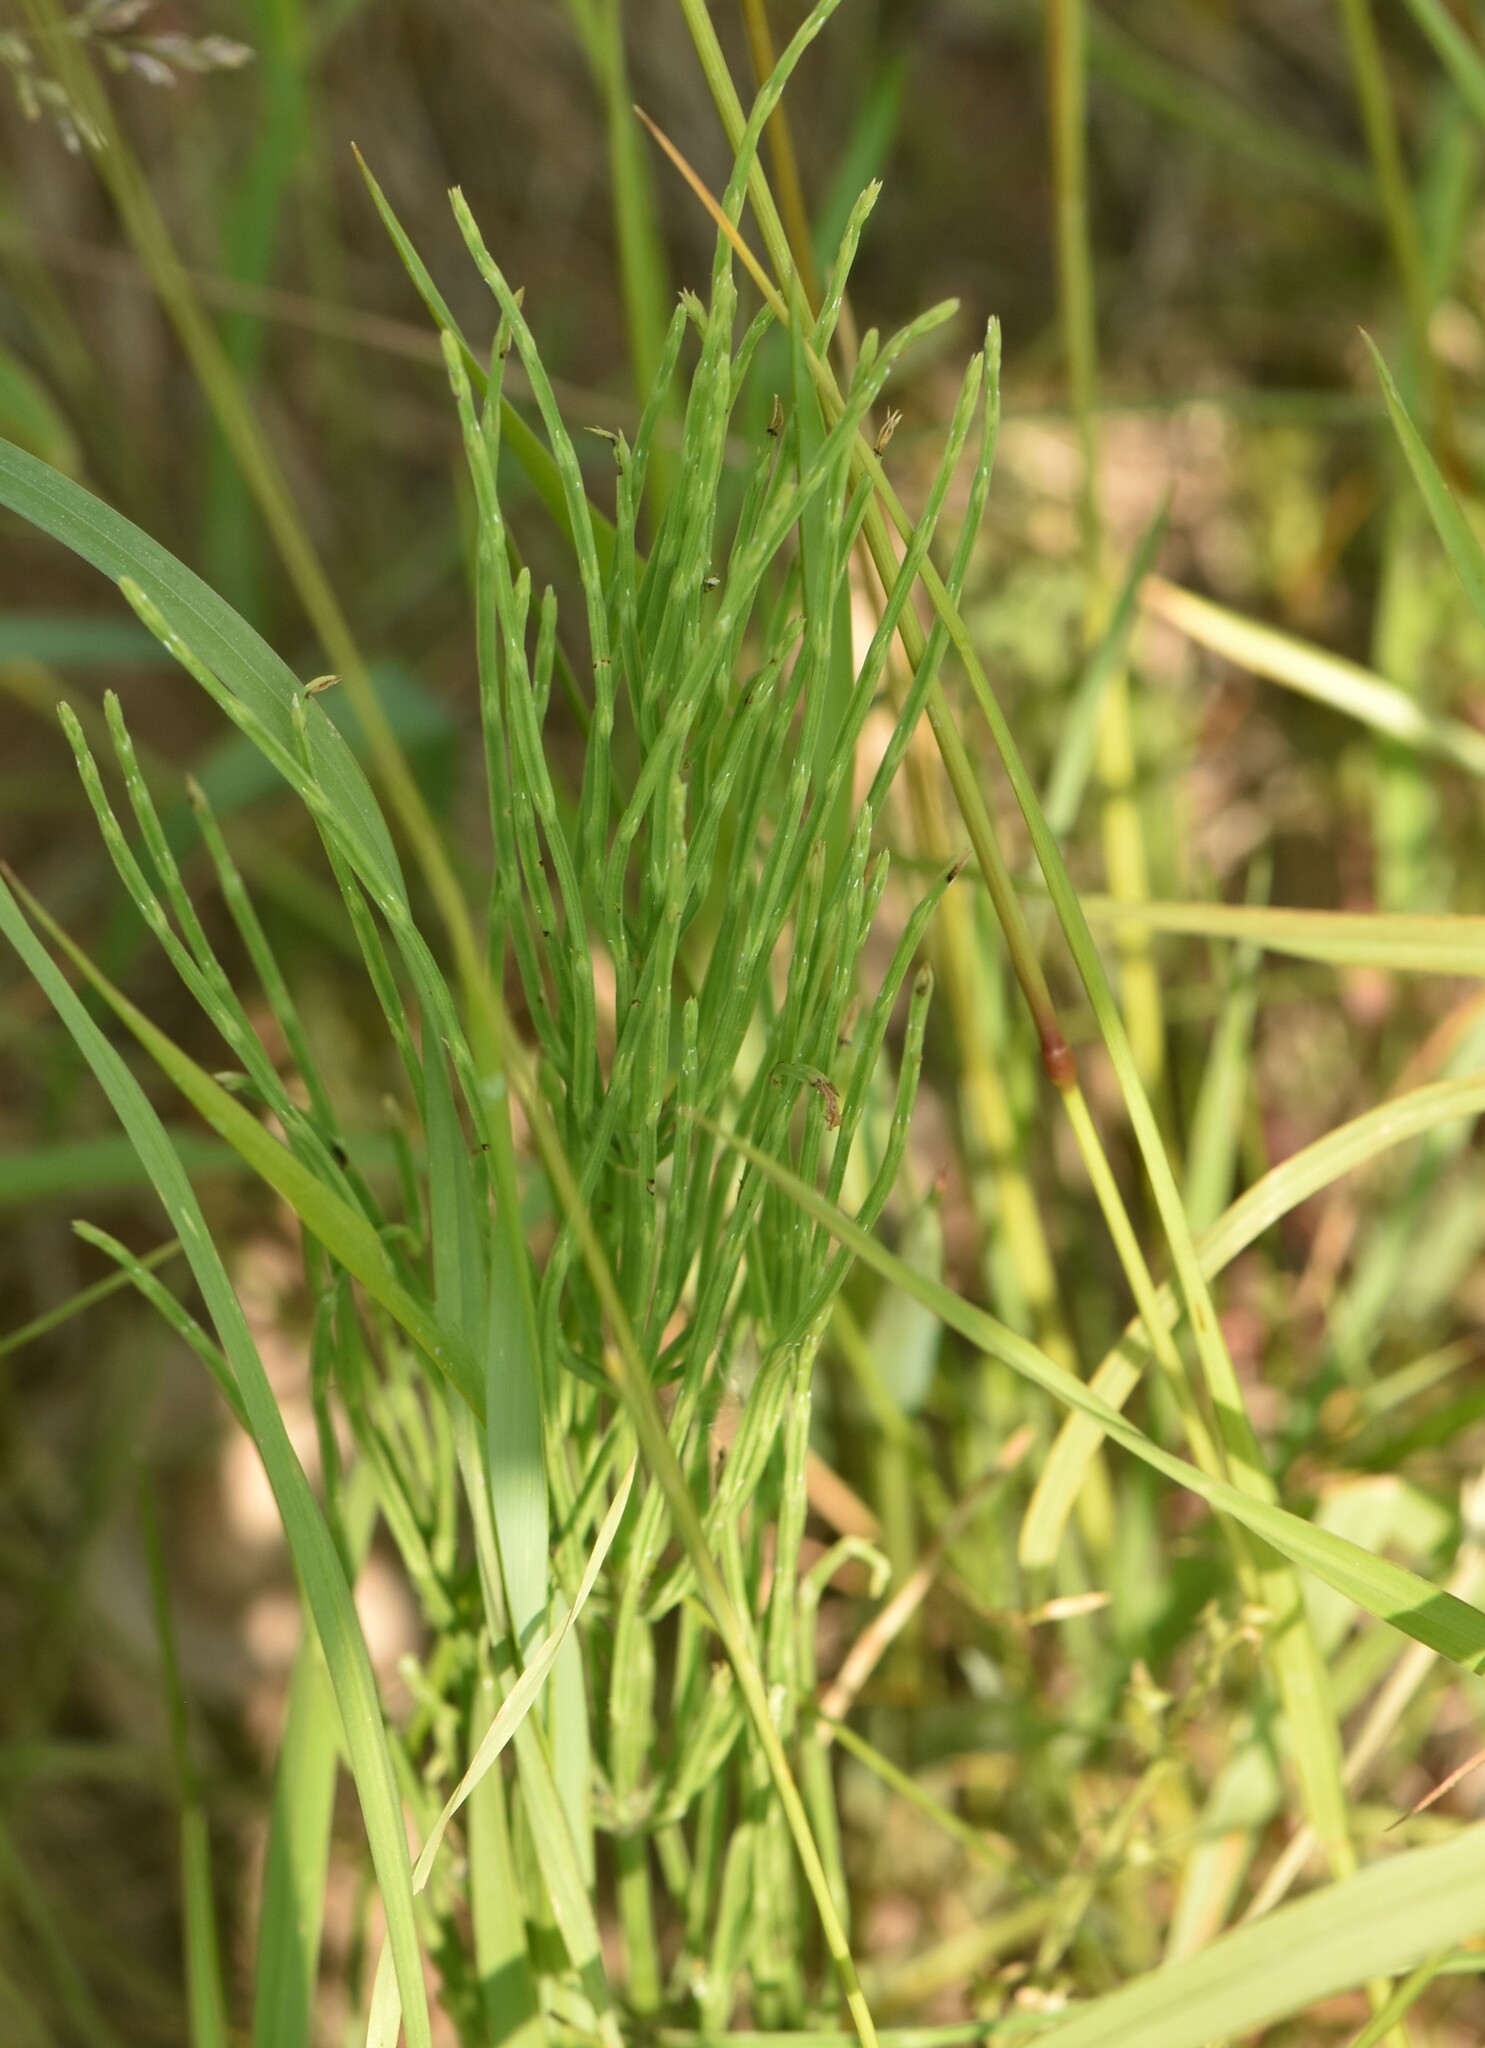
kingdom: Plantae
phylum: Tracheophyta
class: Polypodiopsida
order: Equisetales
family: Equisetaceae
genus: Equisetum
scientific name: Equisetum arvense
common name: Field horsetail
